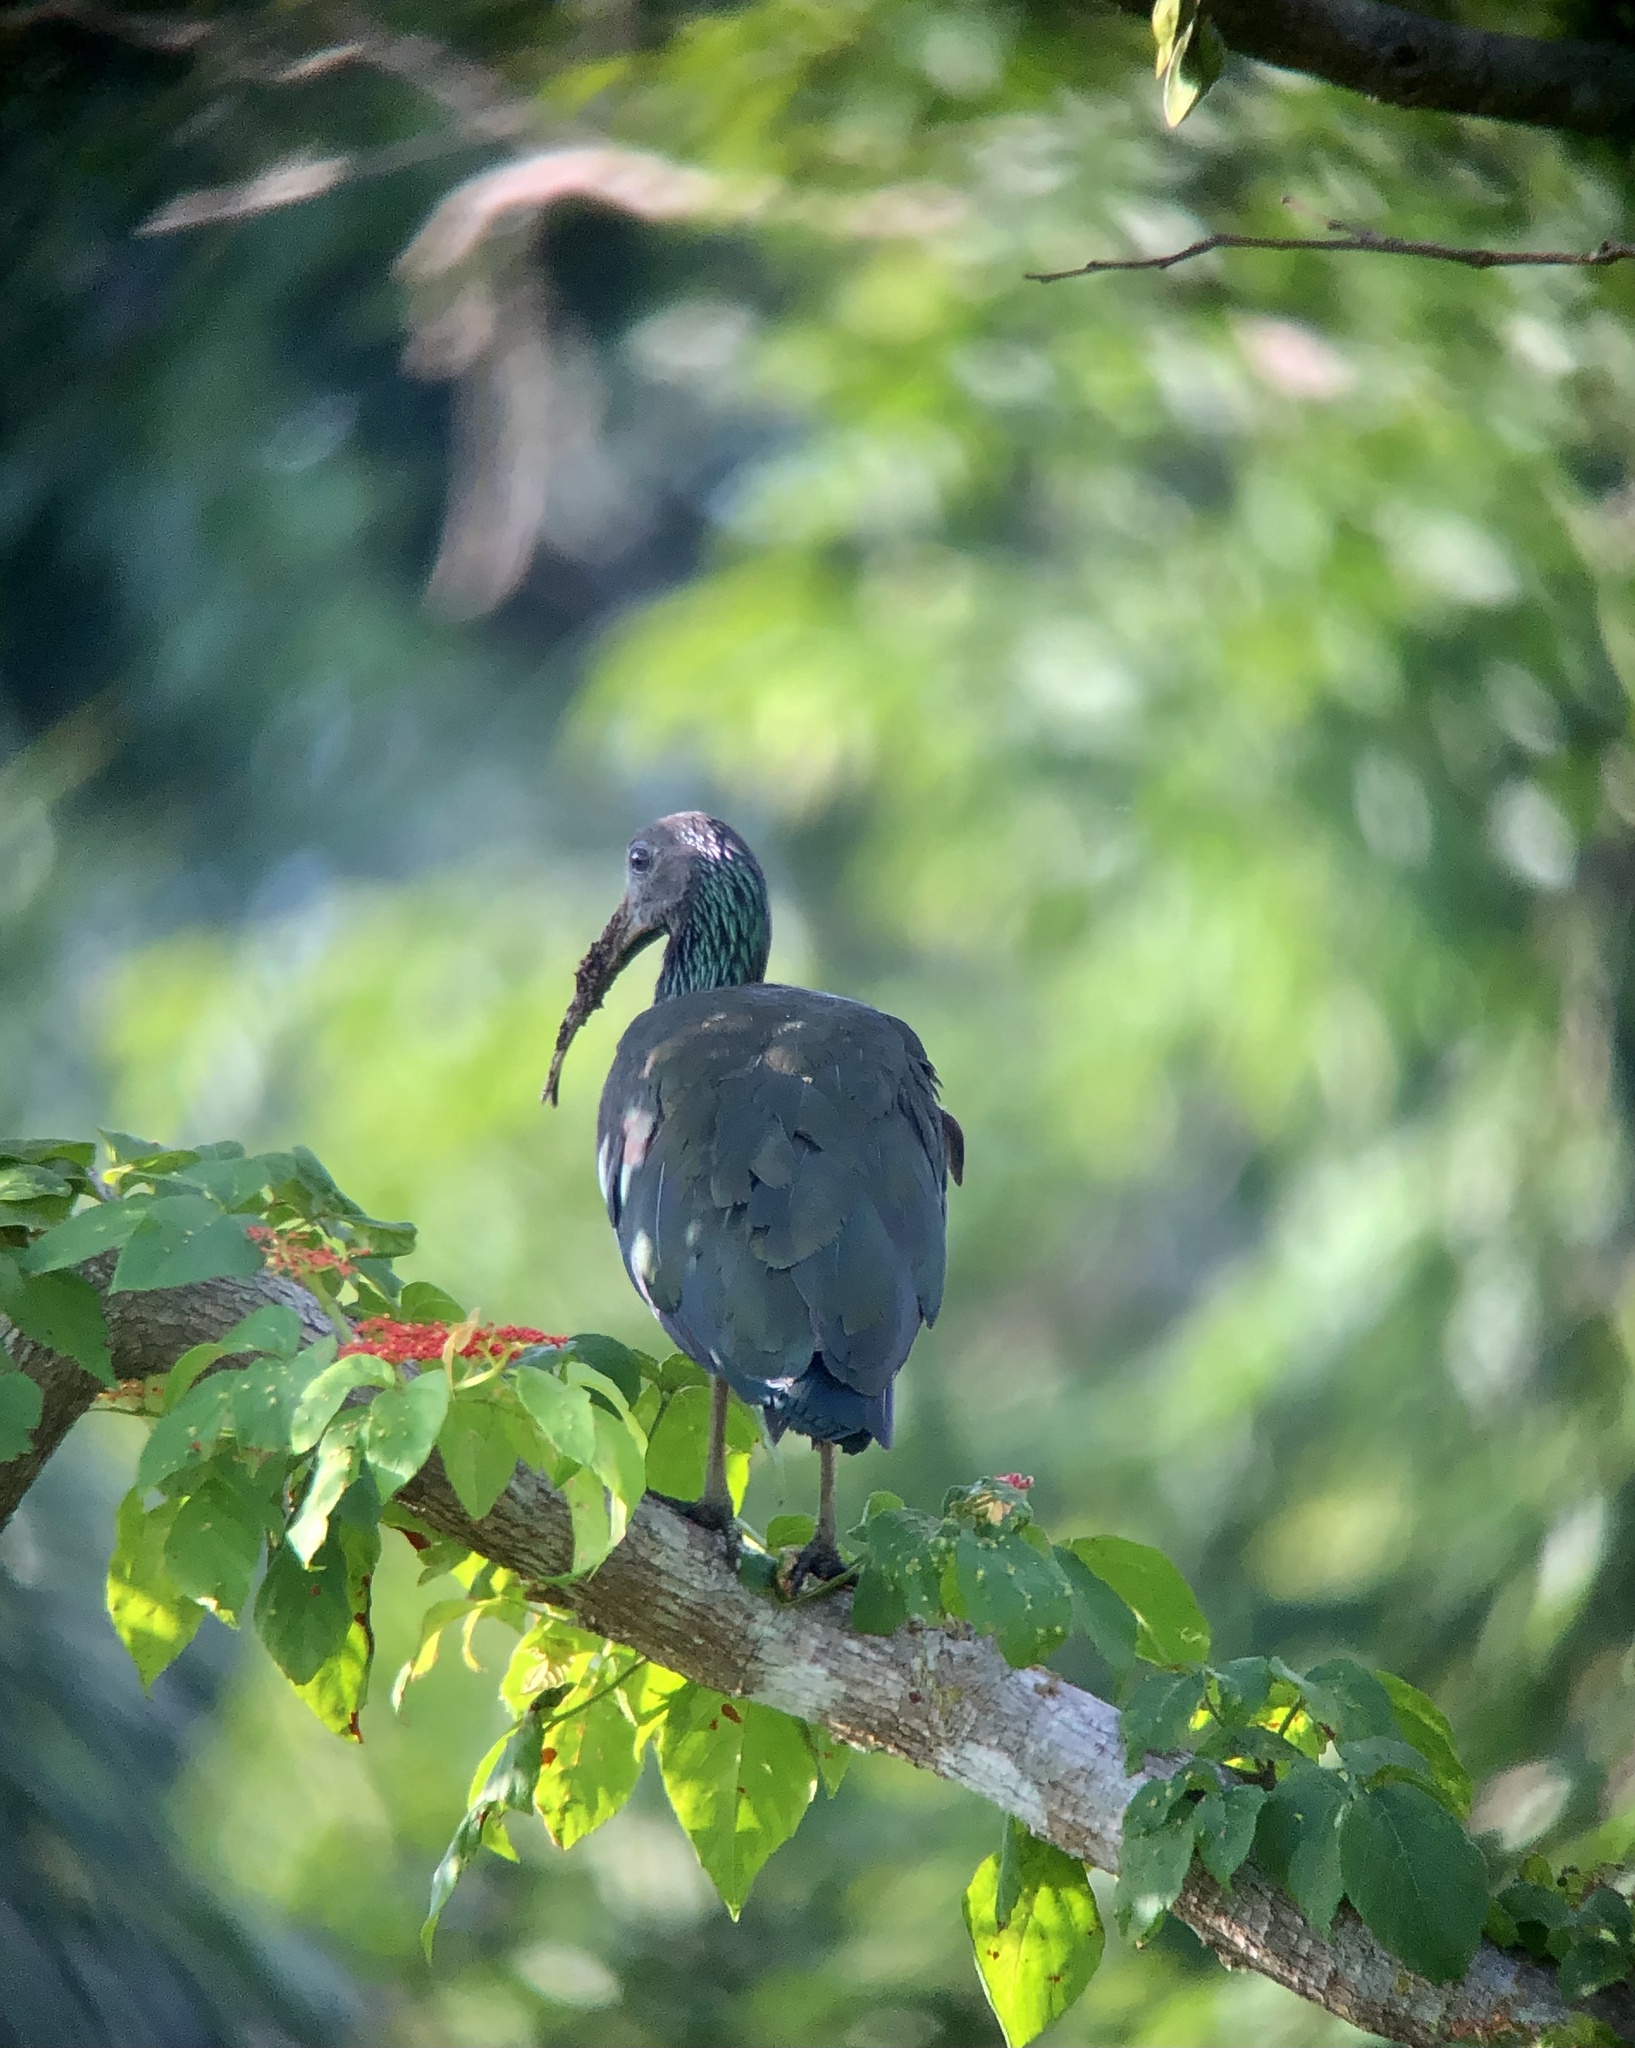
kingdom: Animalia
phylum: Chordata
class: Aves
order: Pelecaniformes
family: Threskiornithidae
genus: Mesembrinibis
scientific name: Mesembrinibis cayennensis
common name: Green ibis
